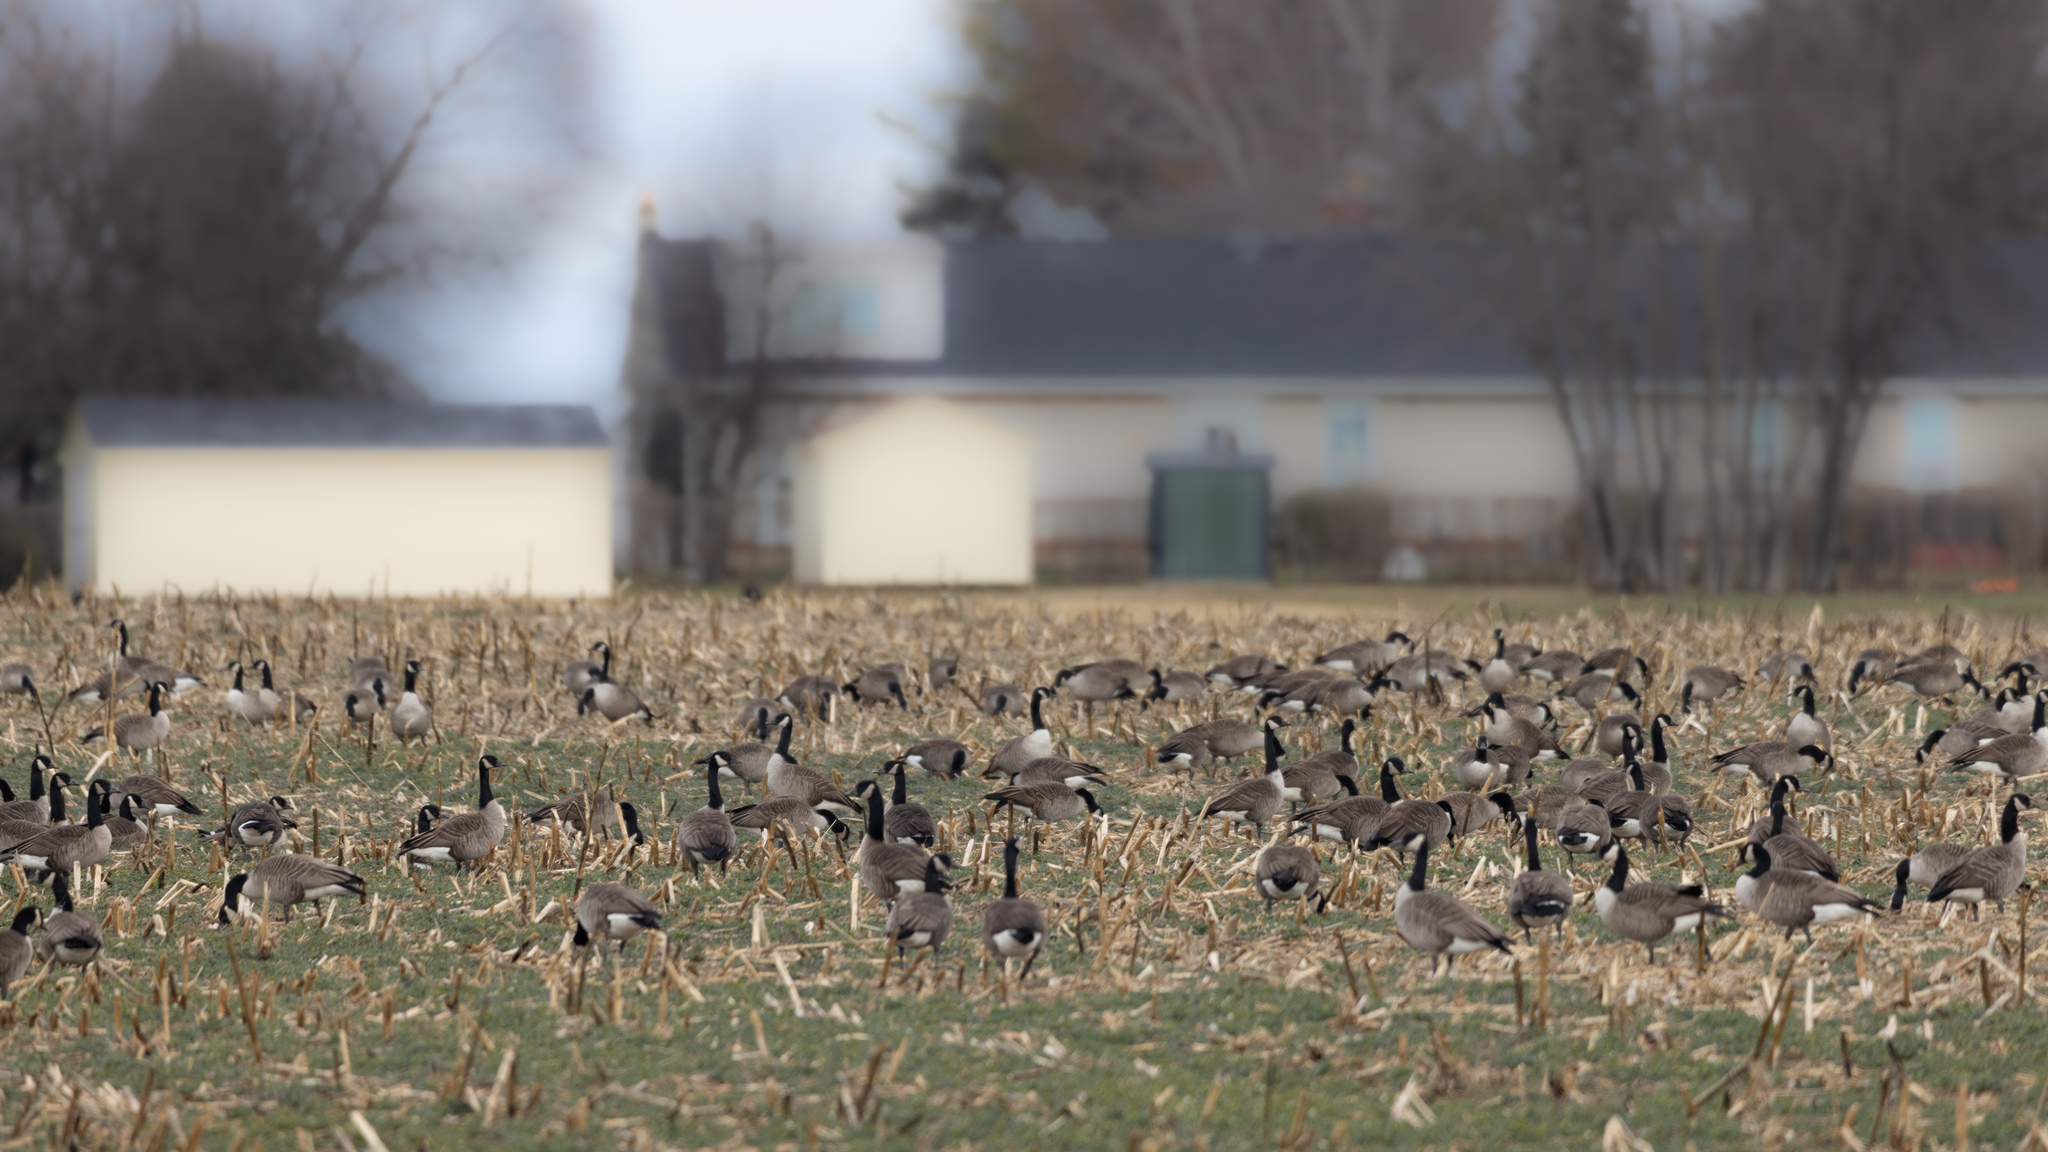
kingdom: Animalia
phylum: Chordata
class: Aves
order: Anseriformes
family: Anatidae
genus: Branta
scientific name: Branta canadensis
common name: Canada goose
